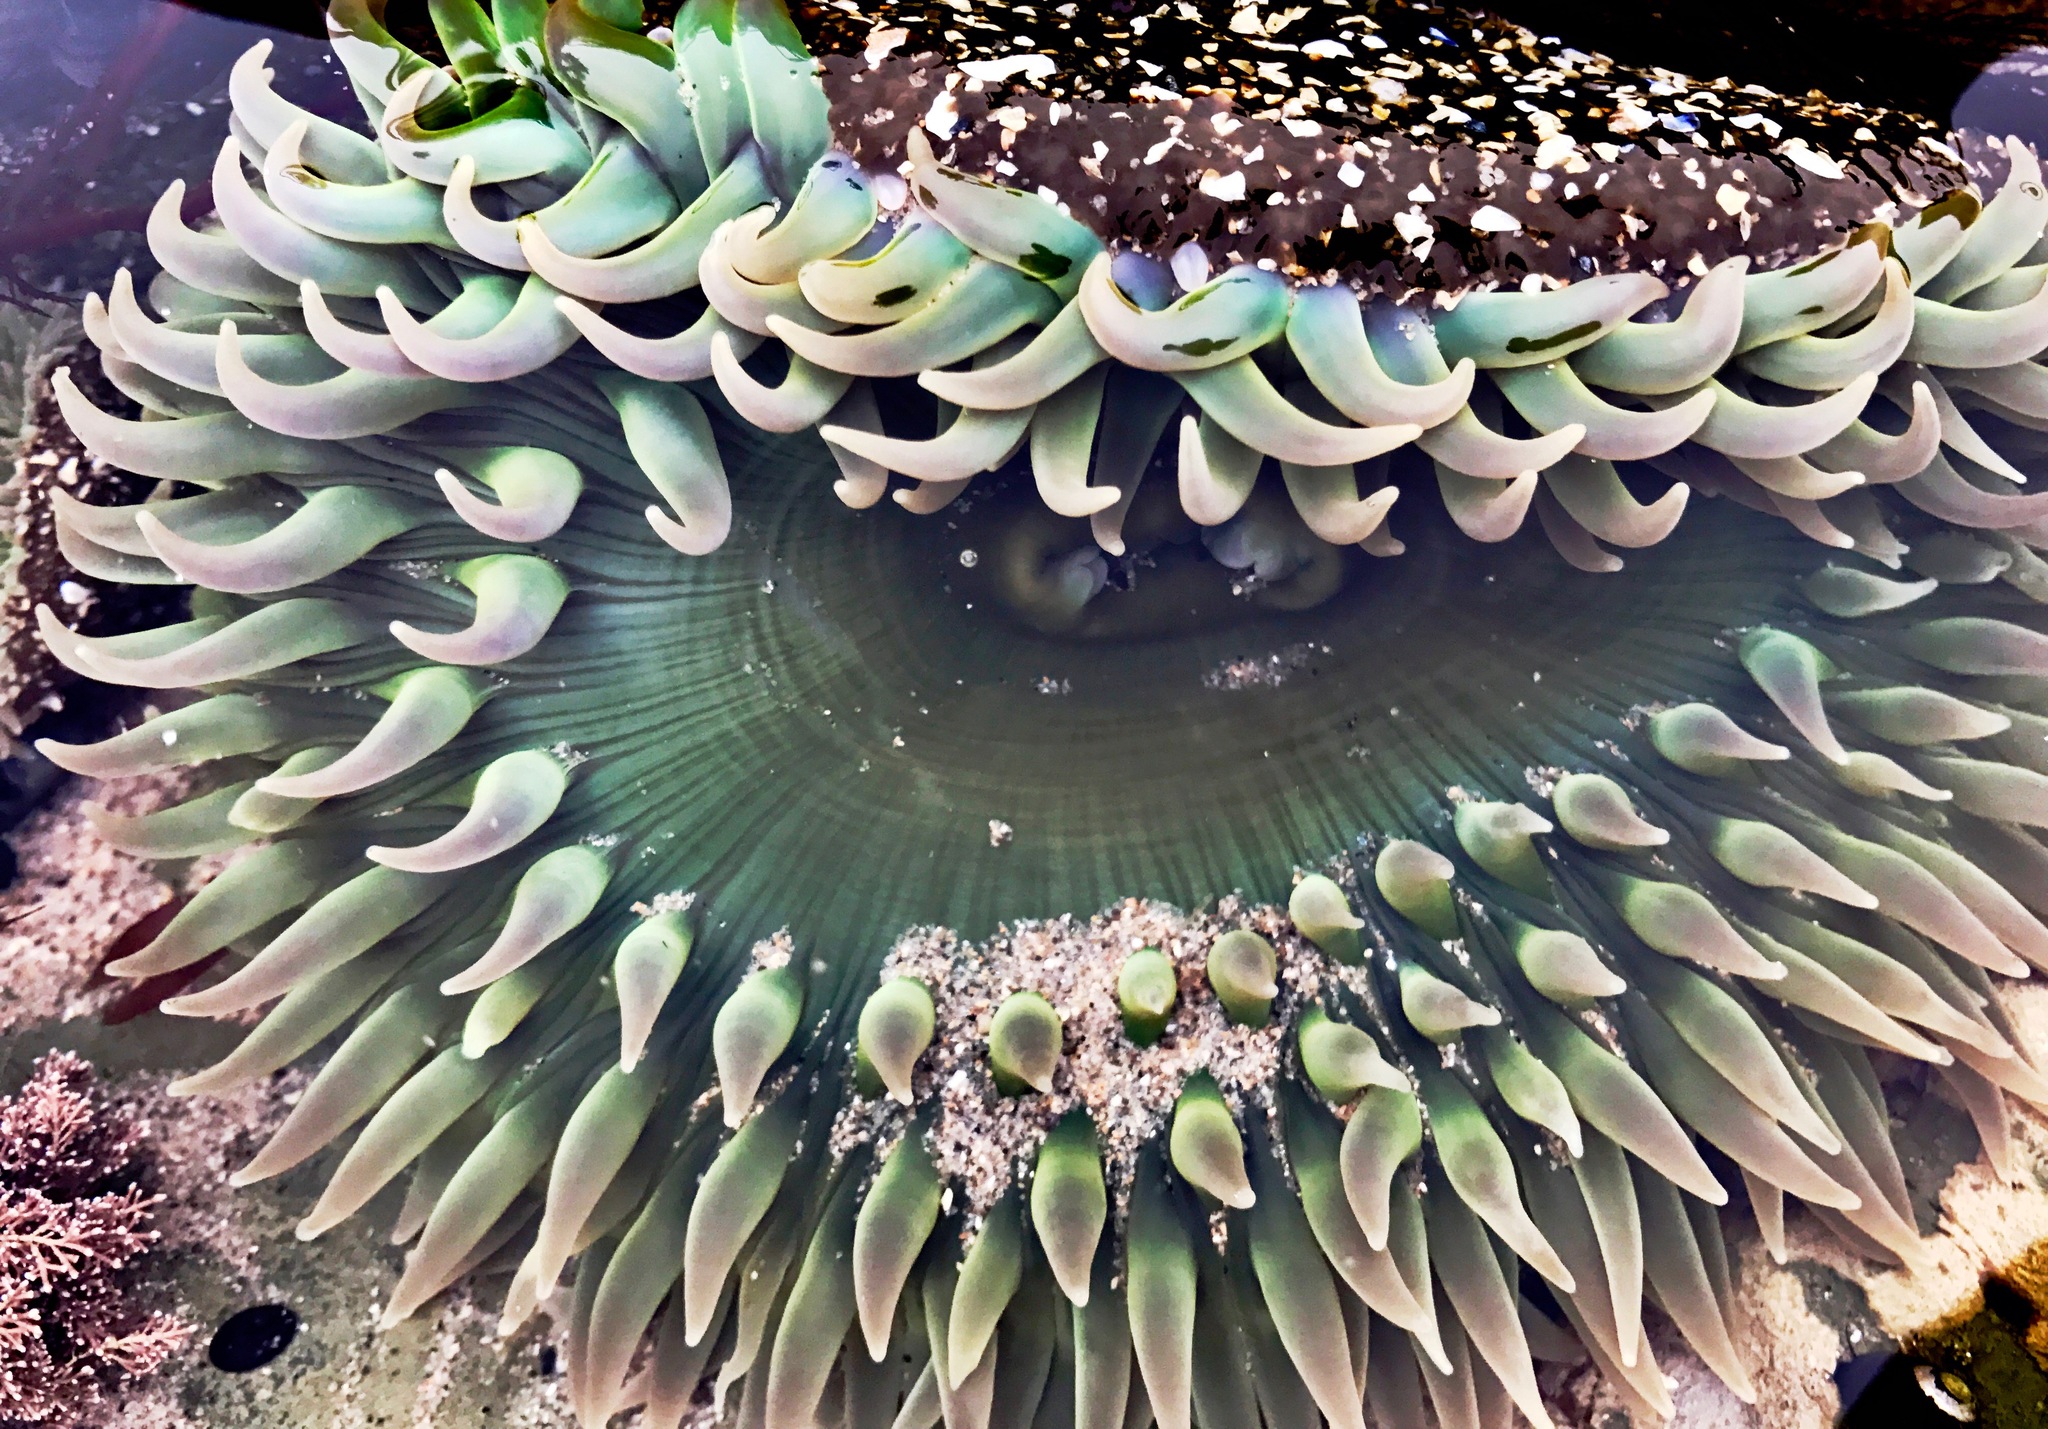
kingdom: Animalia
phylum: Cnidaria
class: Anthozoa
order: Actiniaria
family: Actiniidae
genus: Anthopleura
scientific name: Anthopleura xanthogrammica
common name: Giant green anemone
